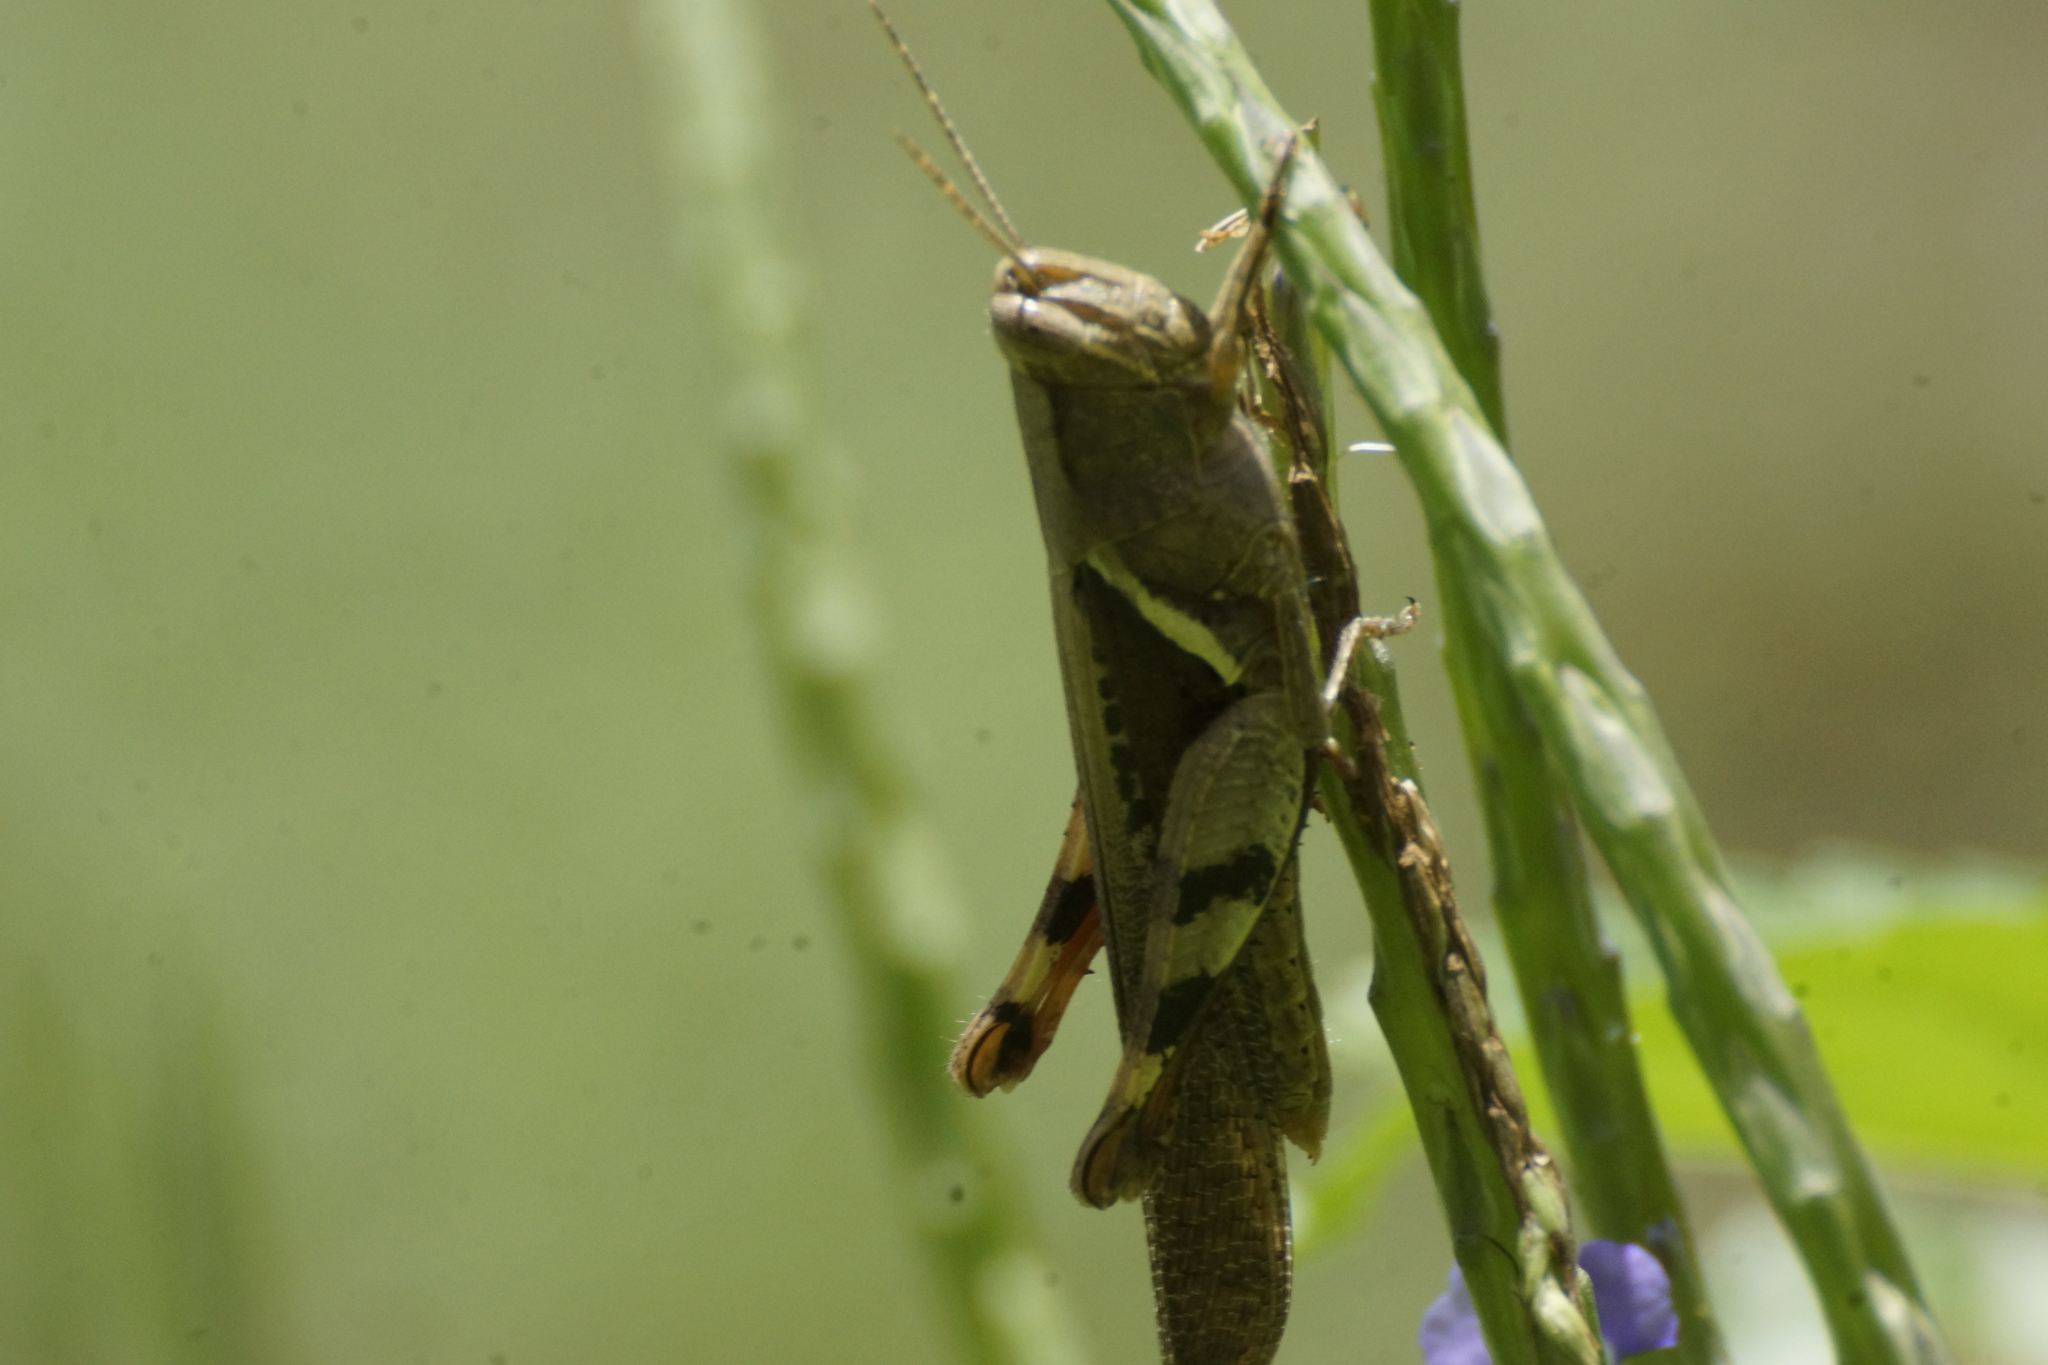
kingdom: Animalia
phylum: Arthropoda
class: Insecta
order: Orthoptera
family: Acrididae
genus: Stenocatantops
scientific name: Stenocatantops angustifrons
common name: Common tropical sharptail
